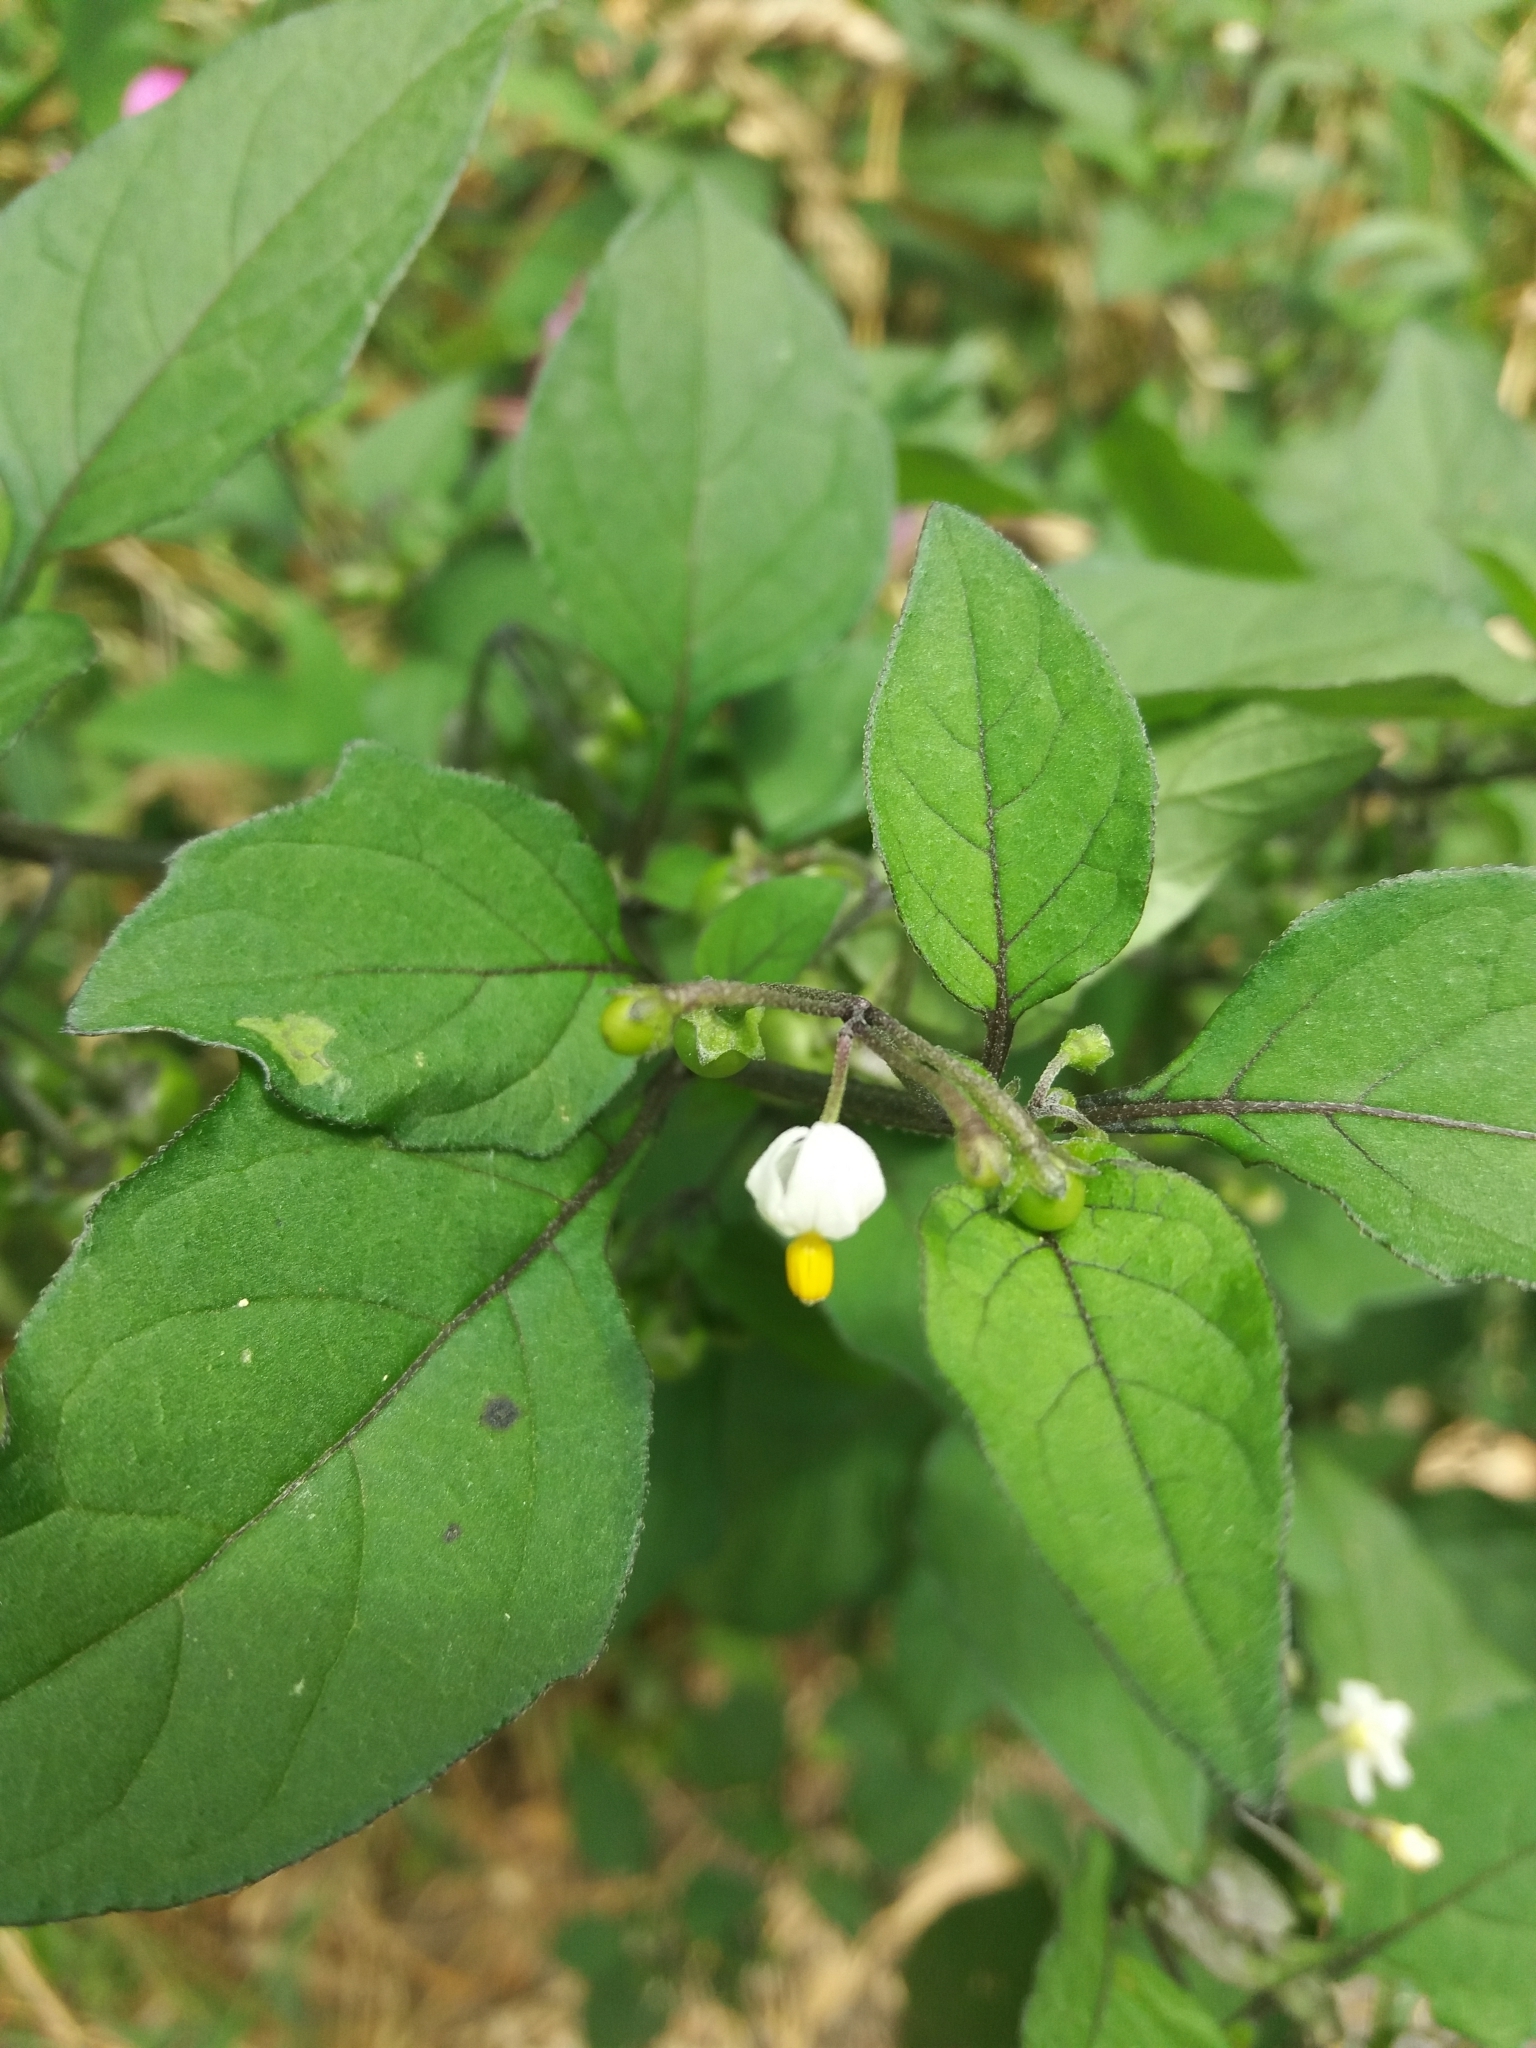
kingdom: Plantae
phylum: Tracheophyta
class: Magnoliopsida
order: Solanales
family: Solanaceae
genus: Solanum
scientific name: Solanum nigrum
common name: Black nightshade
